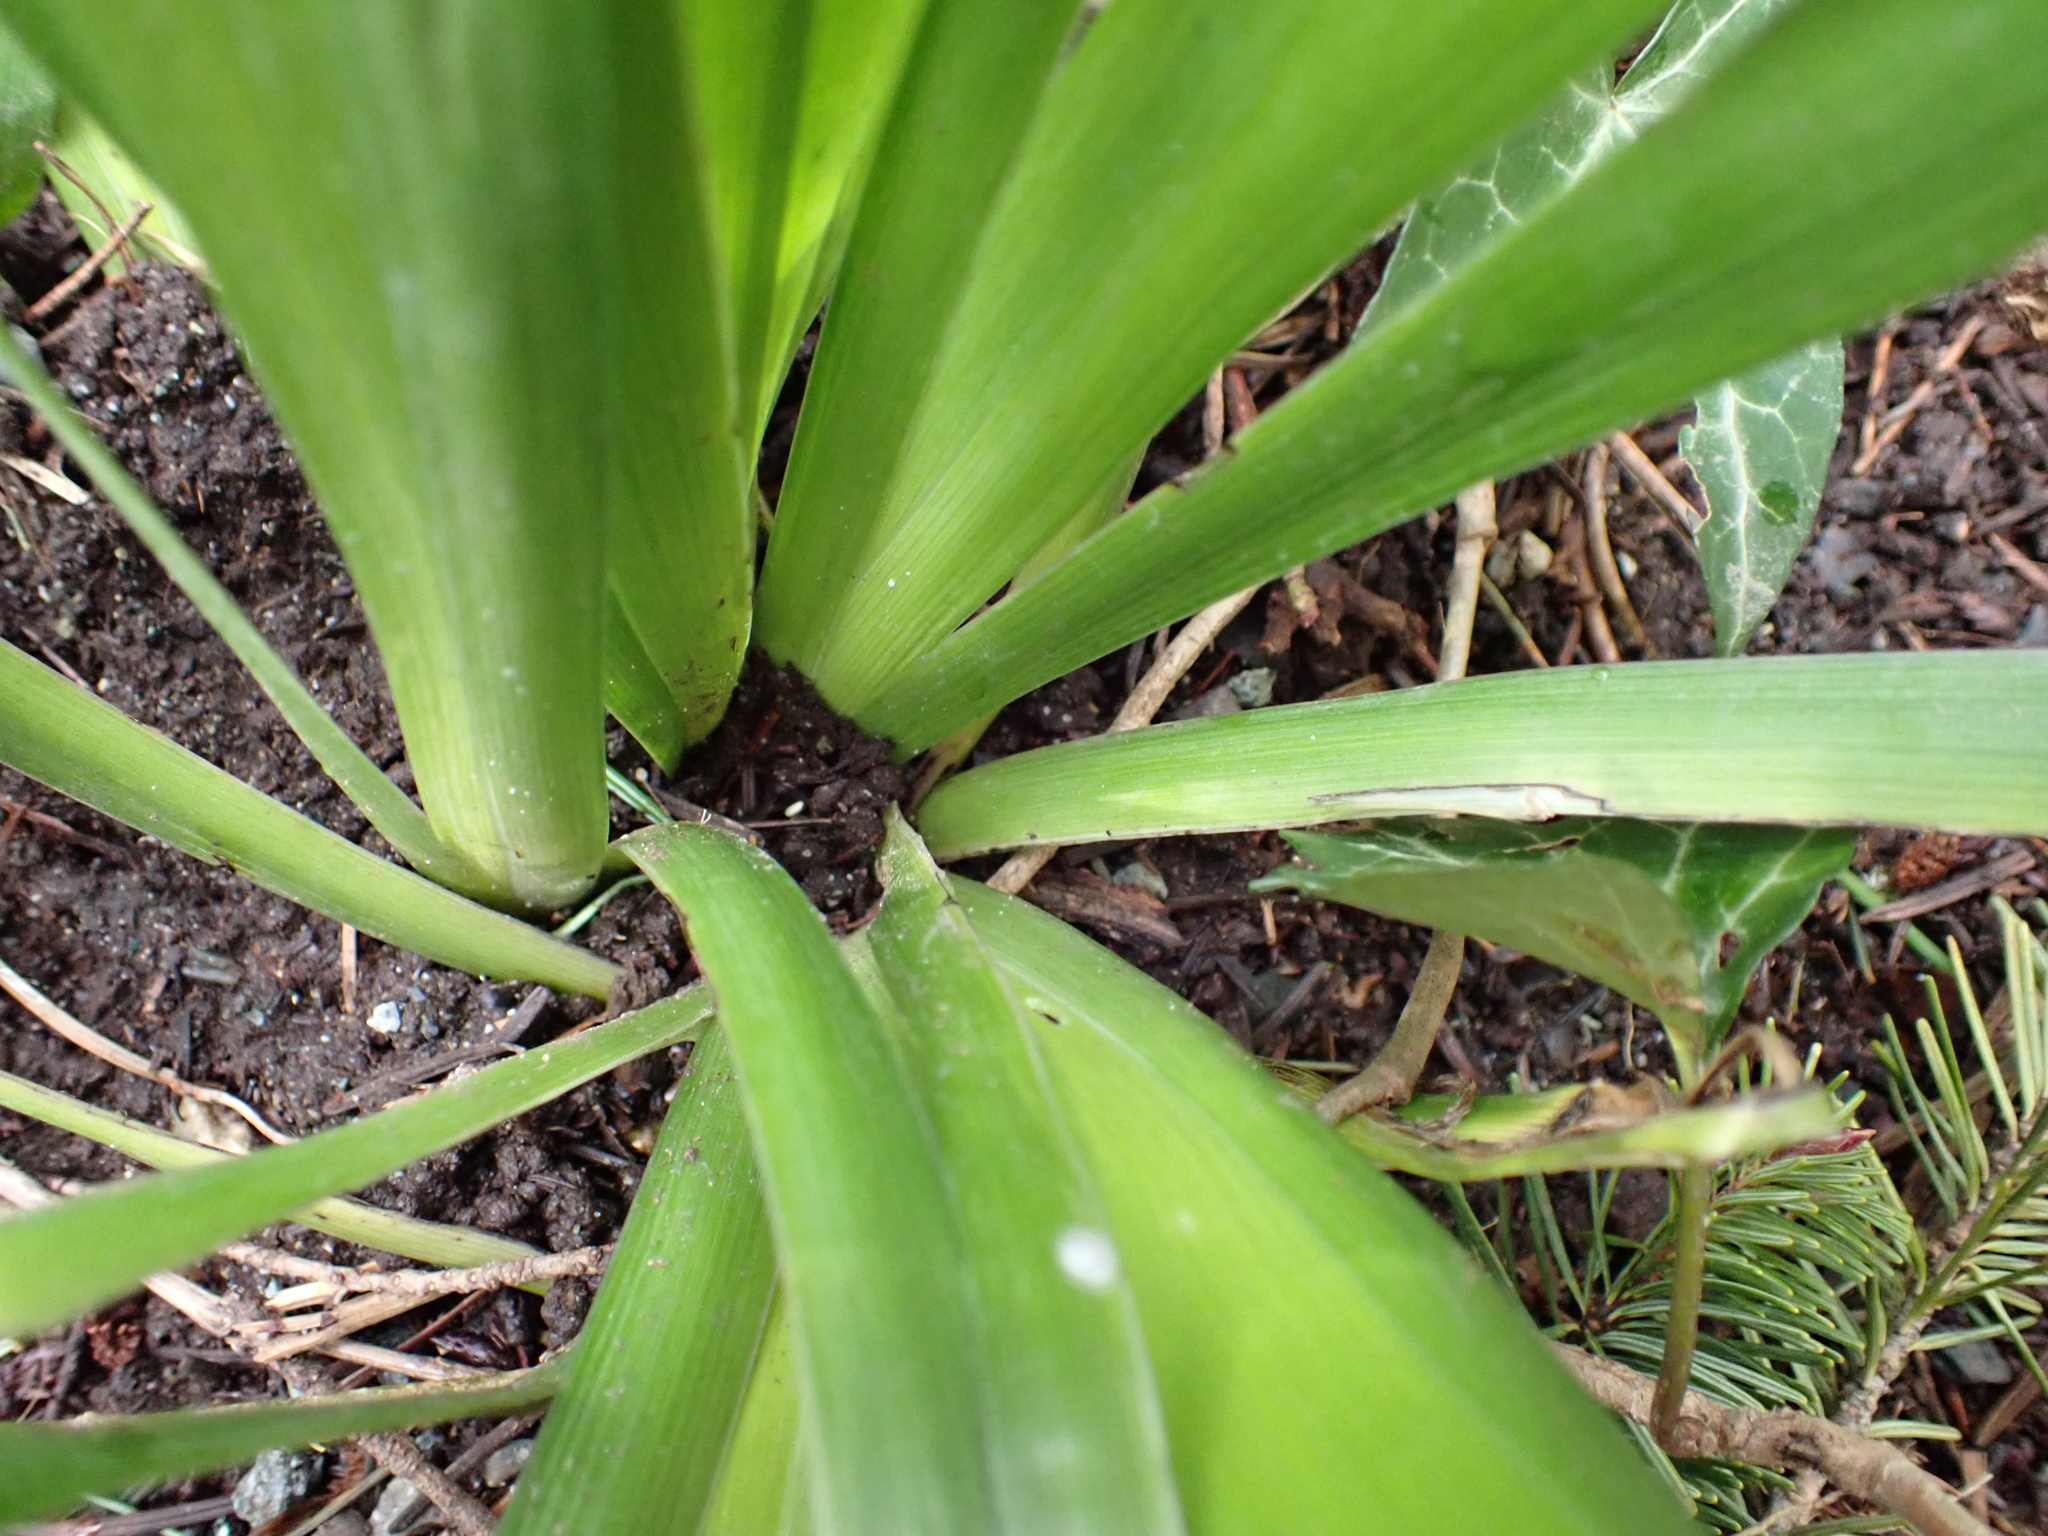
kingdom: Plantae
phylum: Tracheophyta
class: Liliopsida
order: Asparagales
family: Iridaceae
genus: Iris
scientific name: Iris foetidissima
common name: Stinking iris
